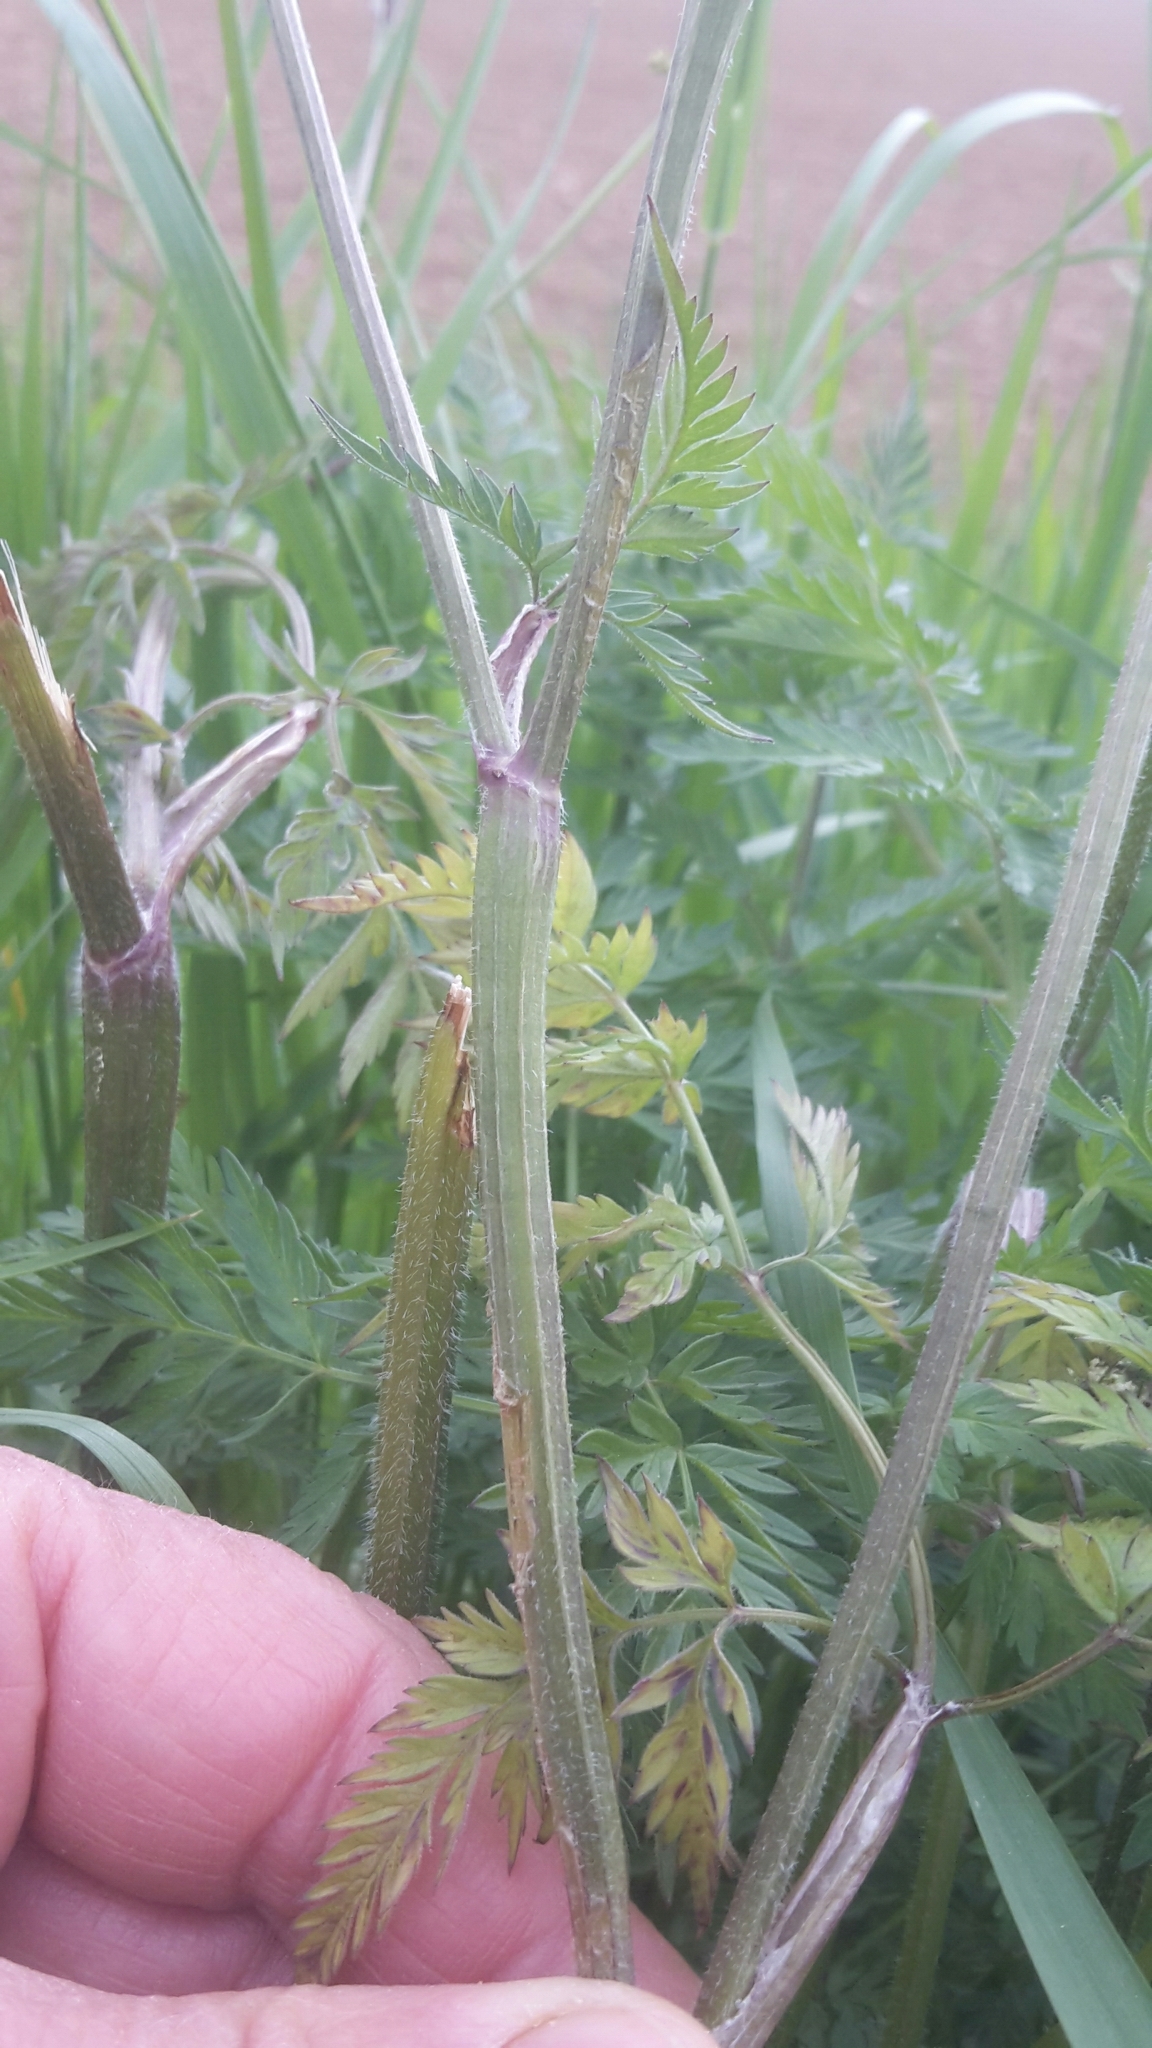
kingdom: Plantae
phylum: Tracheophyta
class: Magnoliopsida
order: Apiales
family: Apiaceae
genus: Anthriscus
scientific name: Anthriscus sylvestris
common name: Cow parsley
